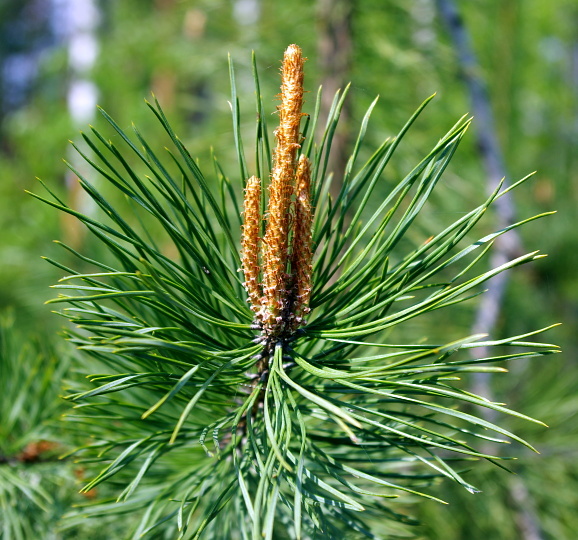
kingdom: Plantae
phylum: Tracheophyta
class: Pinopsida
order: Pinales
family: Pinaceae
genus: Pinus
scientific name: Pinus sylvestris
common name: Scots pine
